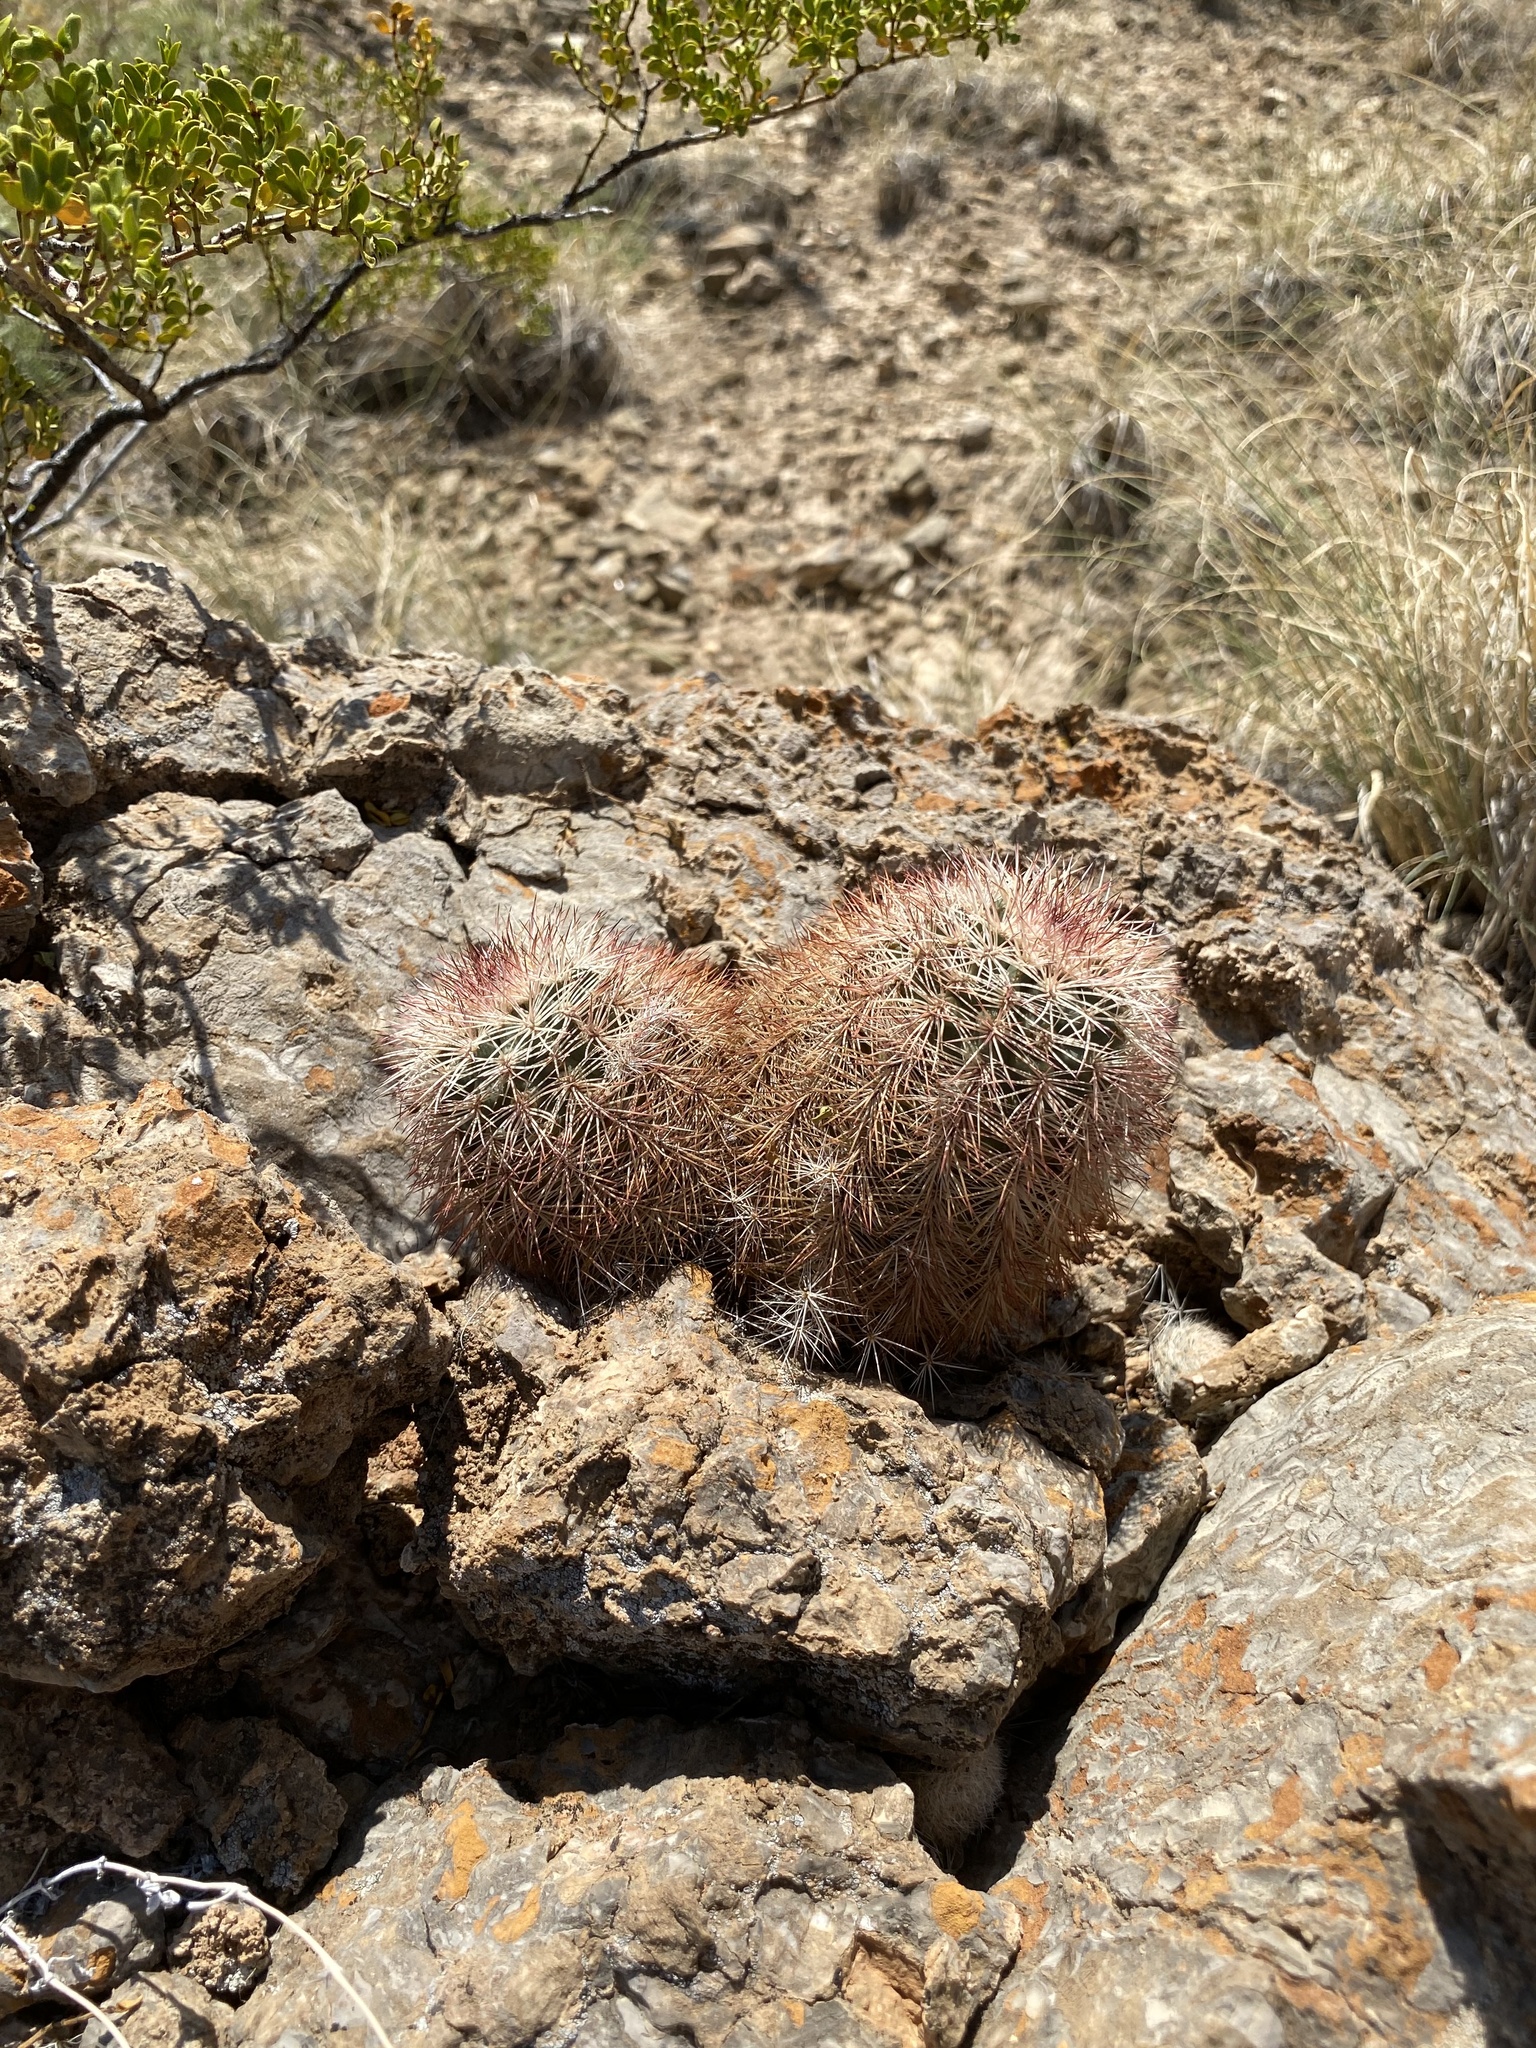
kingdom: Plantae
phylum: Tracheophyta
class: Magnoliopsida
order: Caryophyllales
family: Cactaceae
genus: Echinocereus
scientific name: Echinocereus dasyacanthus
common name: Spiny hedgehog cactus
